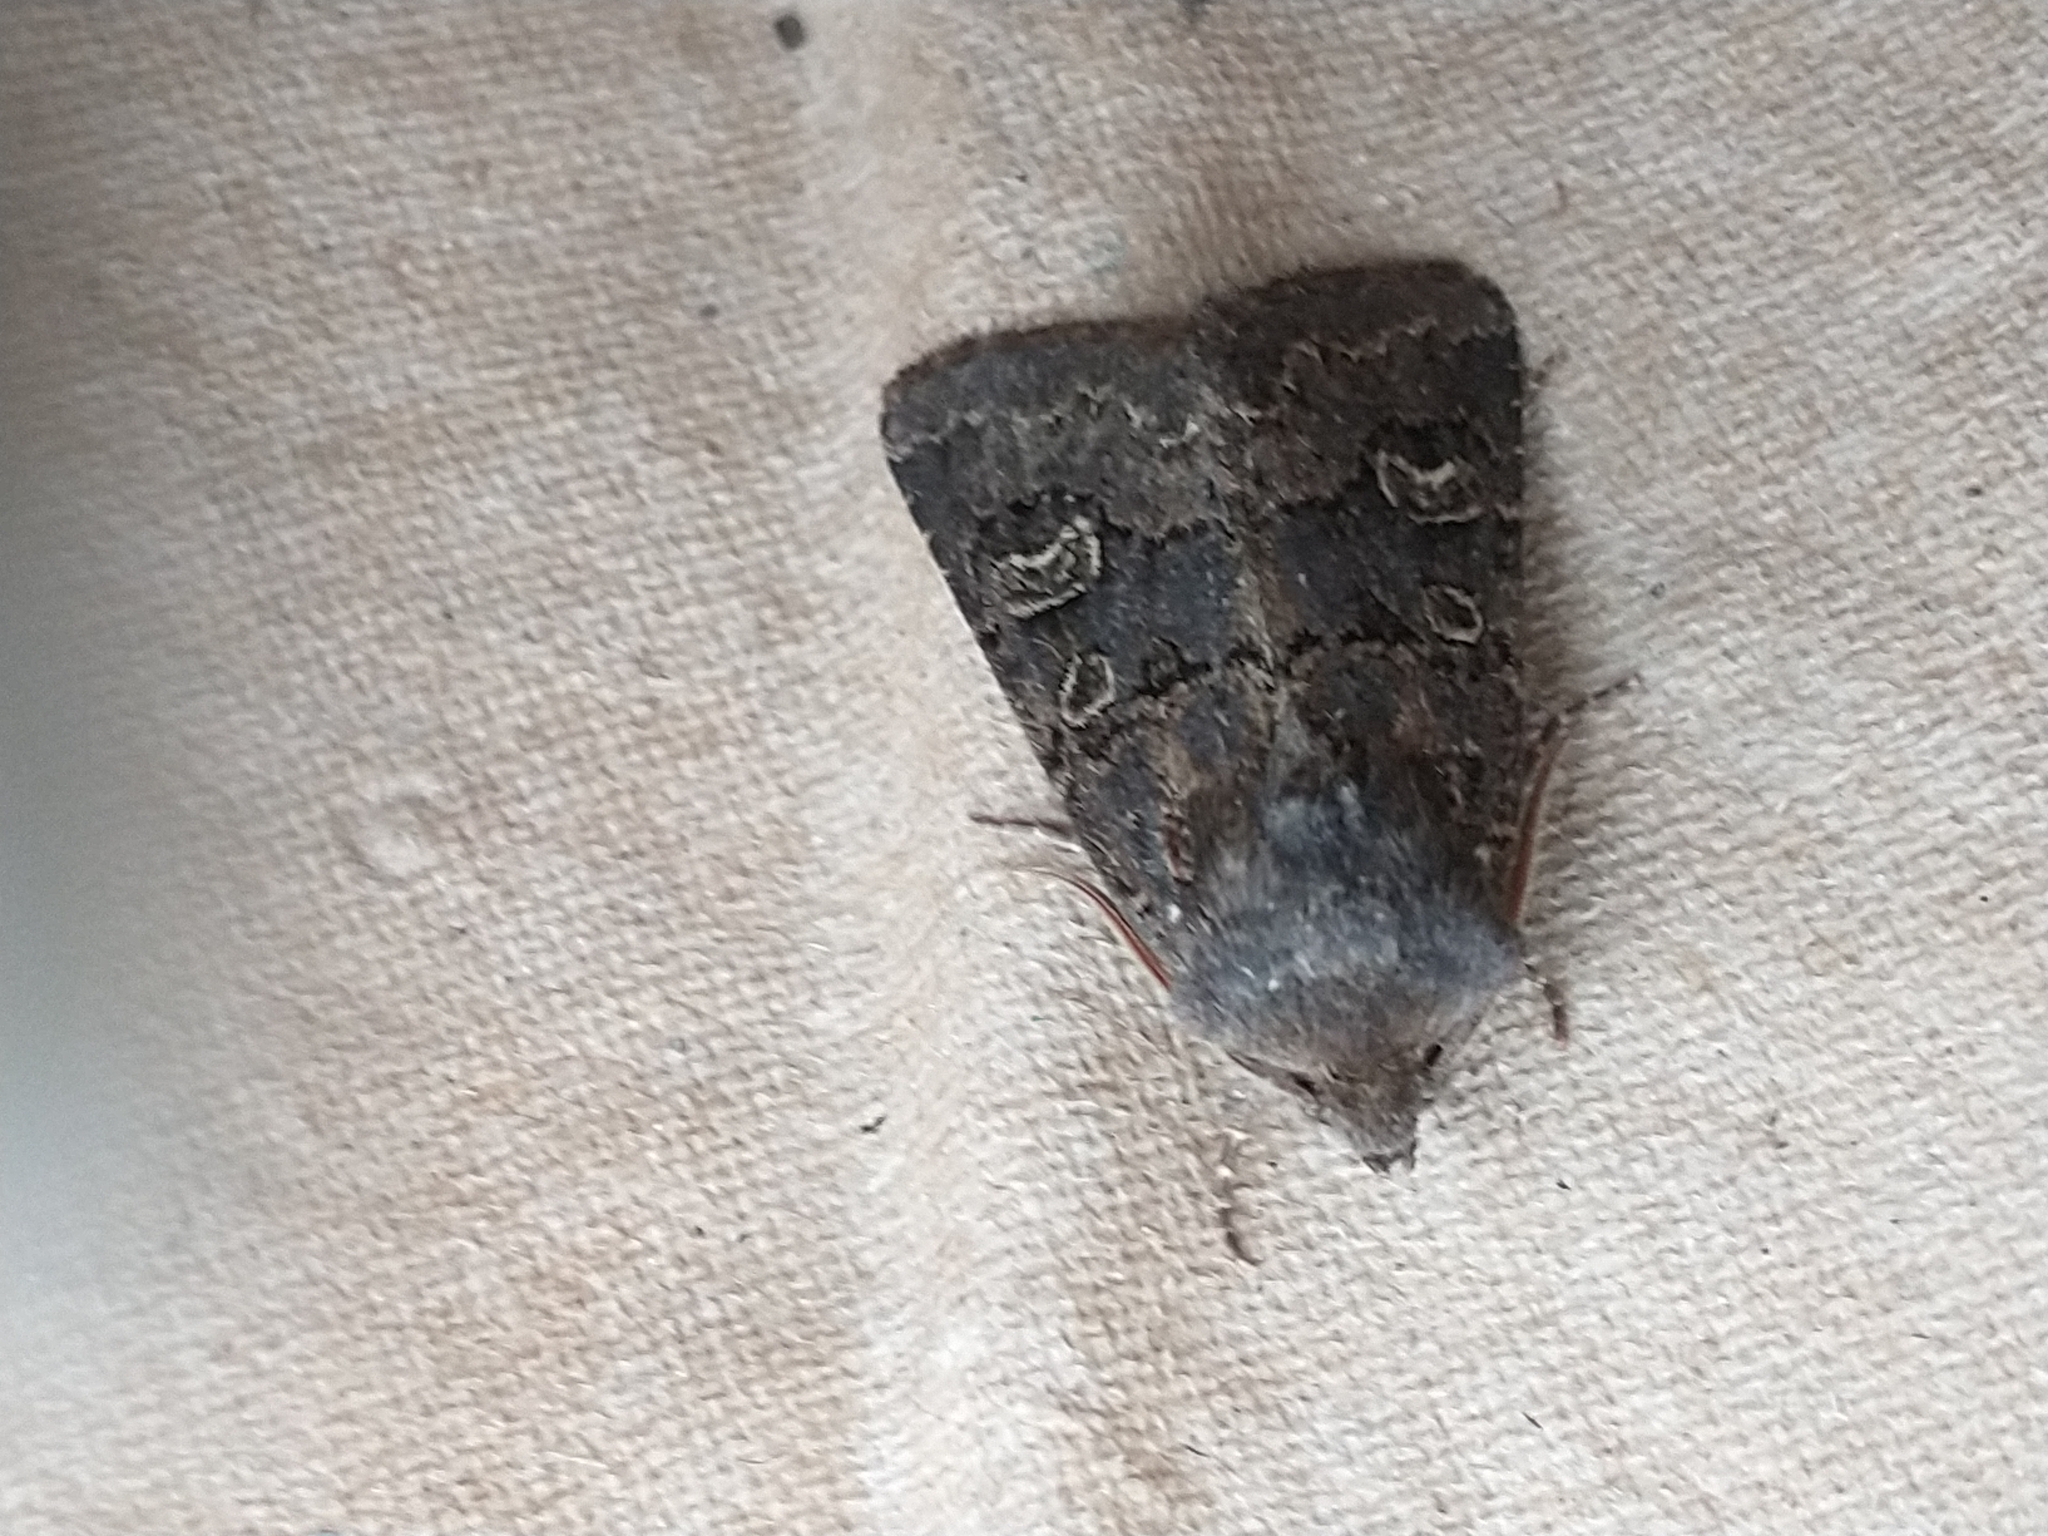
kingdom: Animalia
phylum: Arthropoda
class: Insecta
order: Lepidoptera
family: Noctuidae
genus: Tholera
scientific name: Tholera cespitis
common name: Hedge rustic
